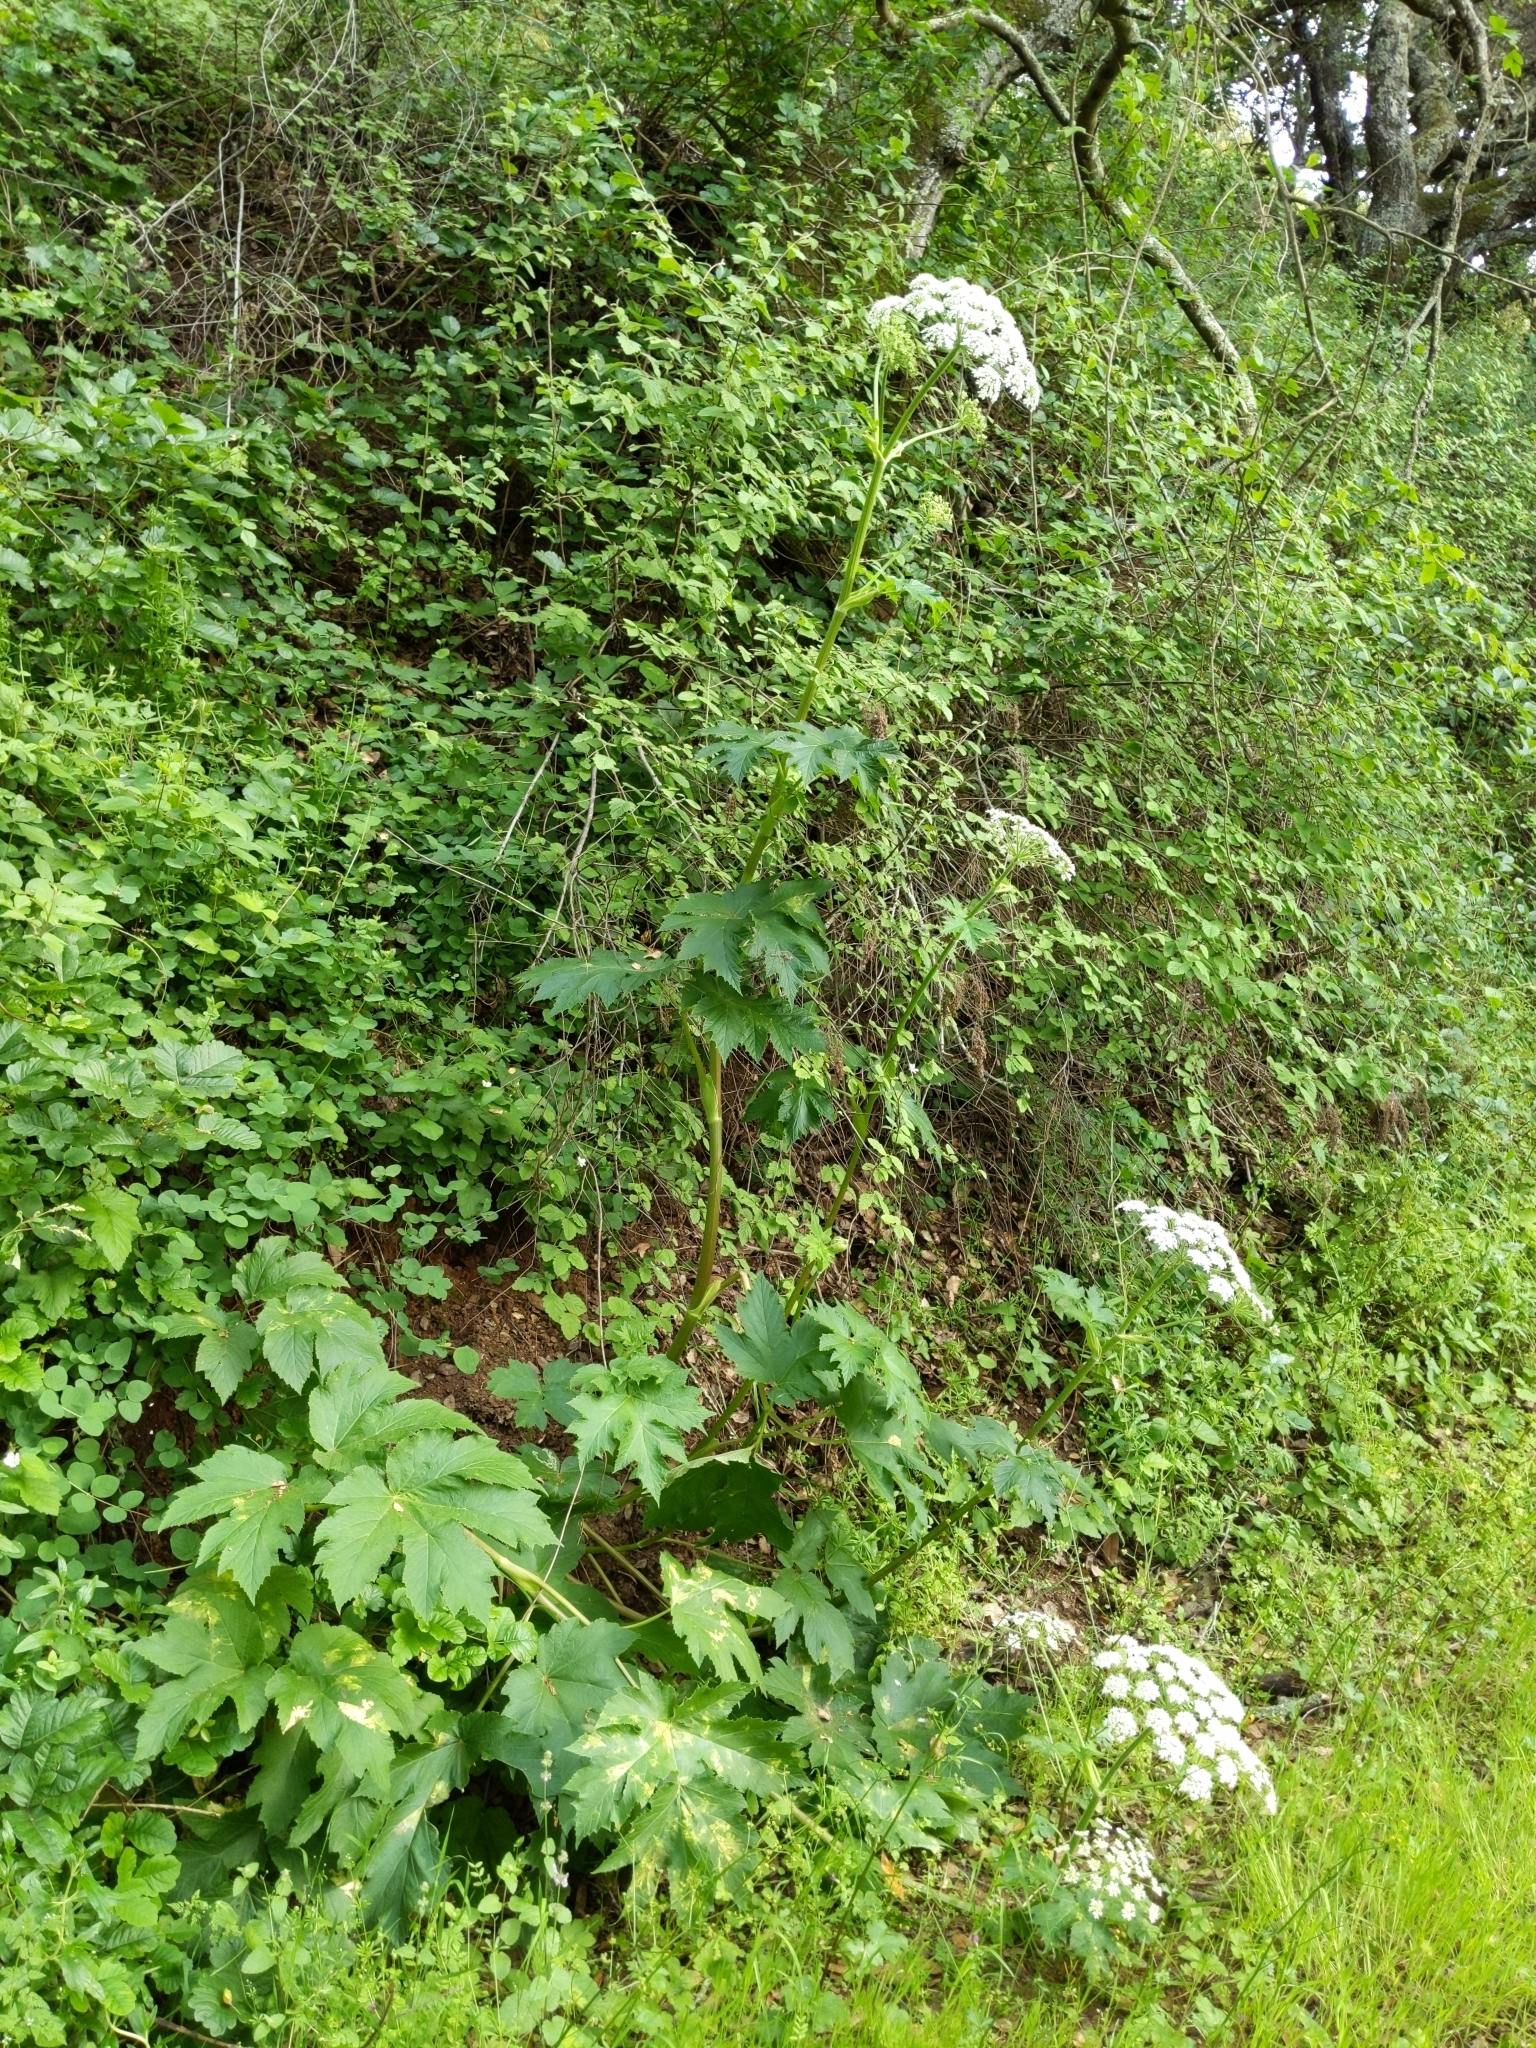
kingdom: Plantae
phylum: Tracheophyta
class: Magnoliopsida
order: Apiales
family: Apiaceae
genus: Heracleum
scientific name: Heracleum maximum
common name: American cow parsnip
